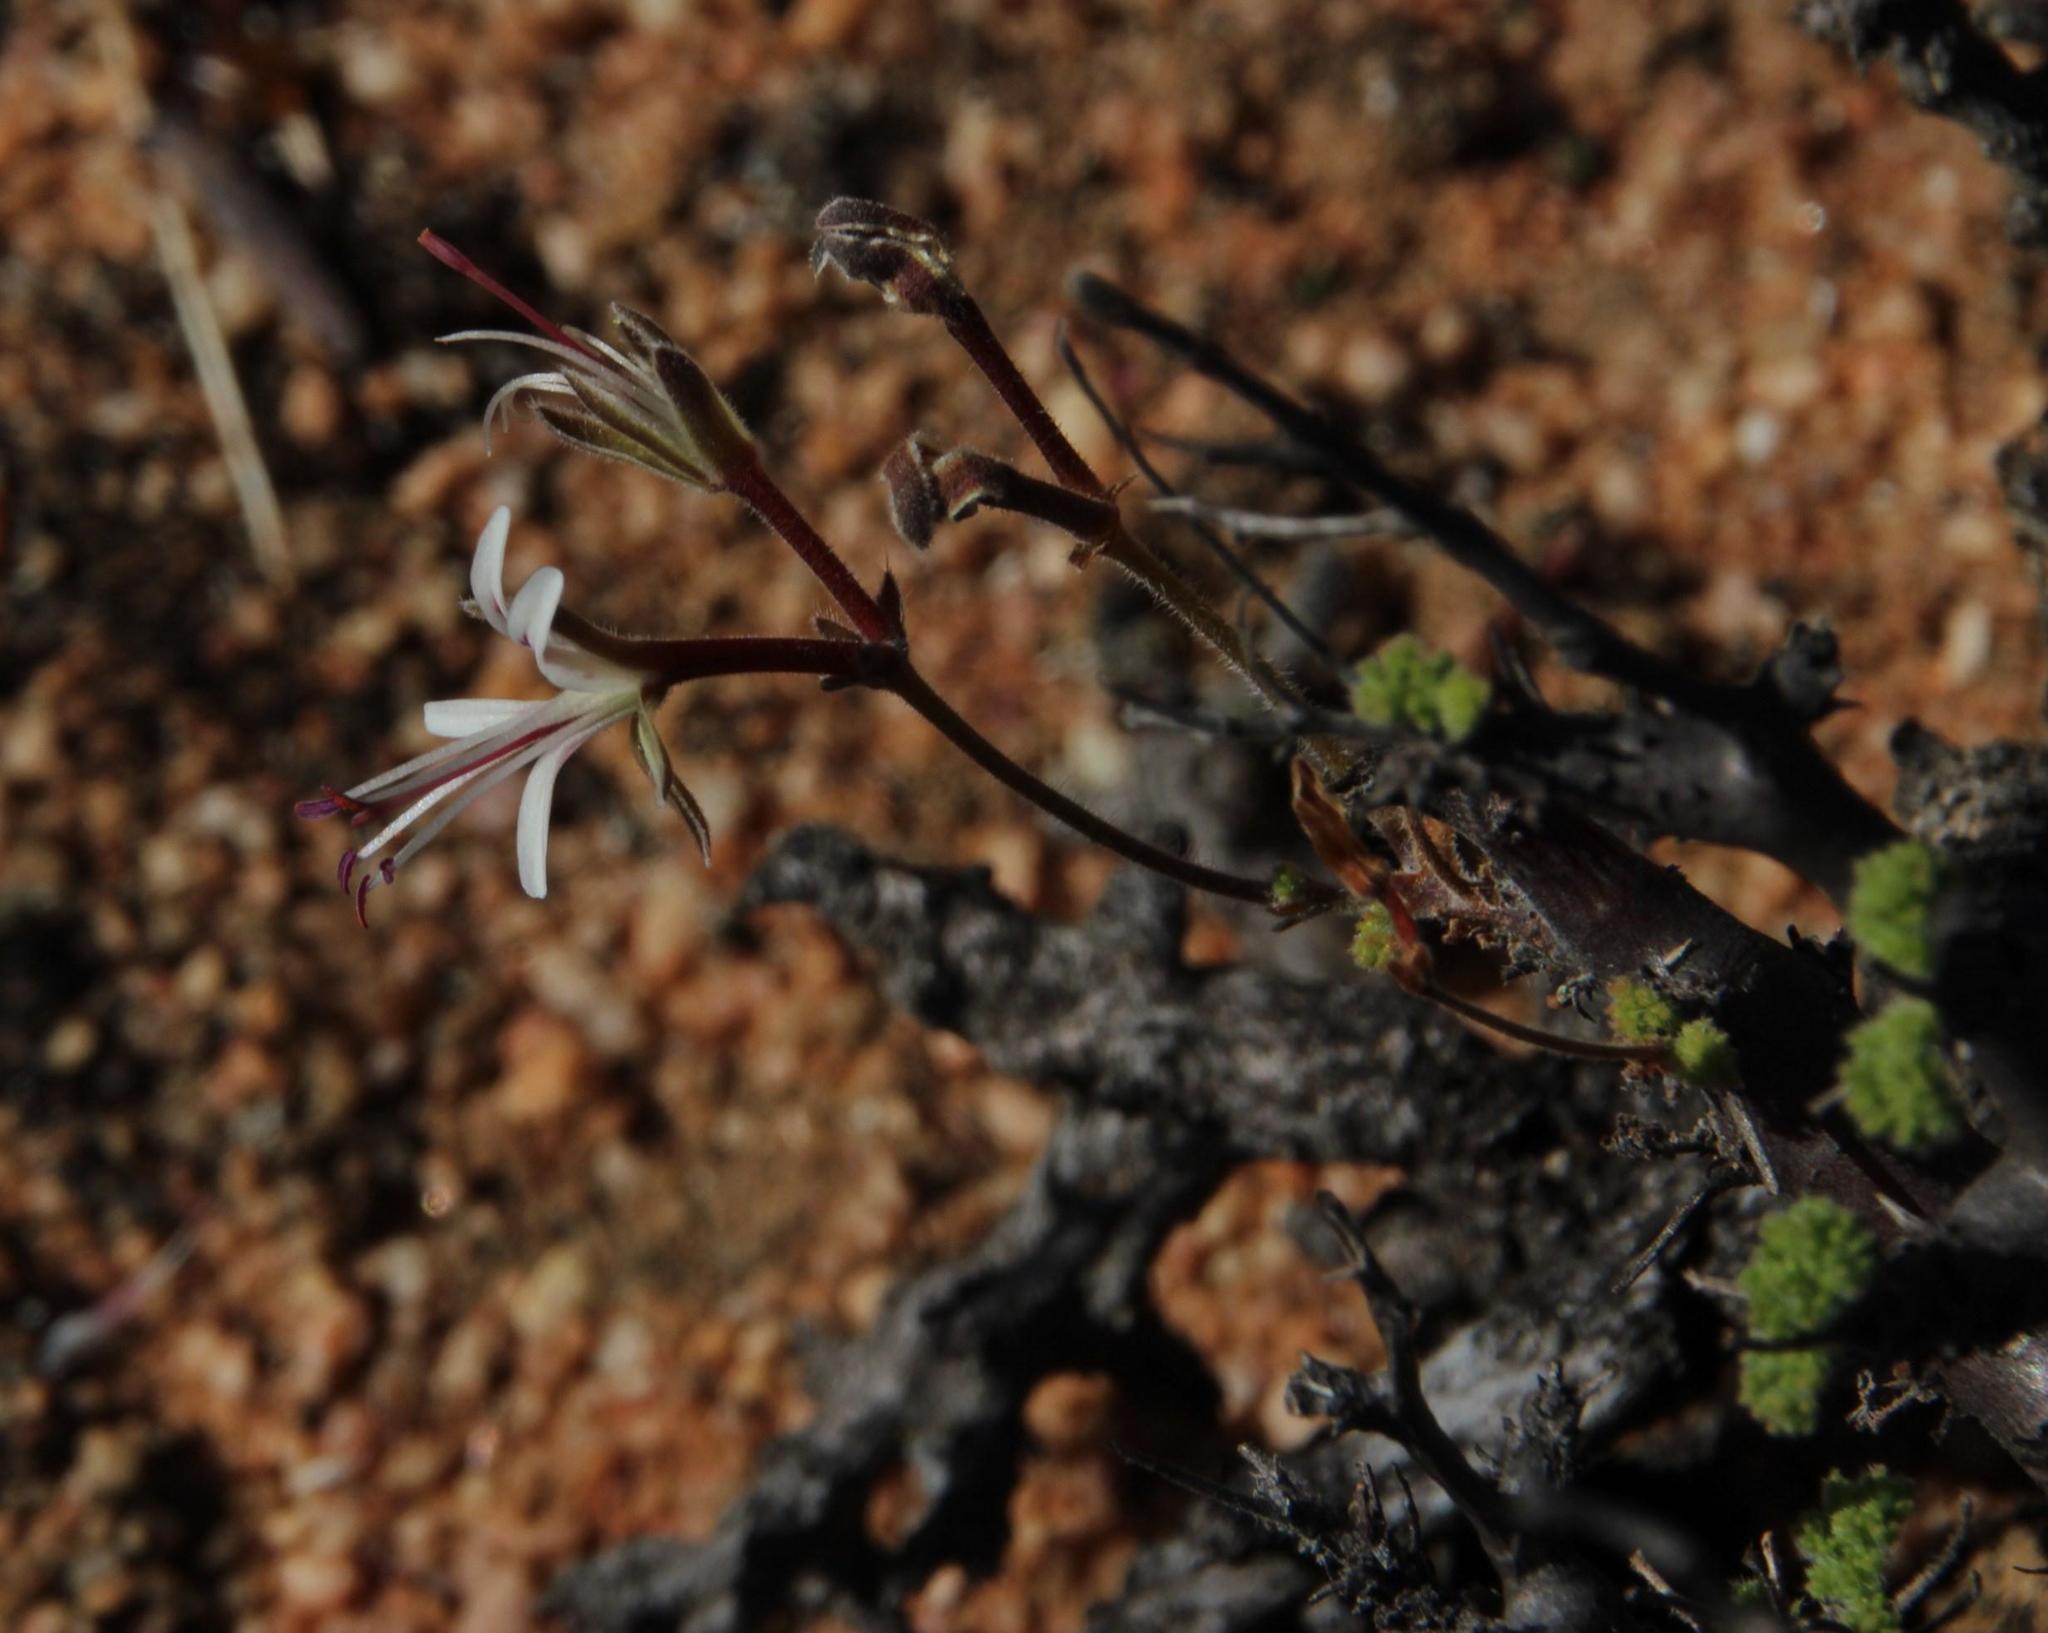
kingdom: Plantae
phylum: Tracheophyta
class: Magnoliopsida
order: Geraniales
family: Geraniaceae
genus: Pelargonium
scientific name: Pelargonium alternans
